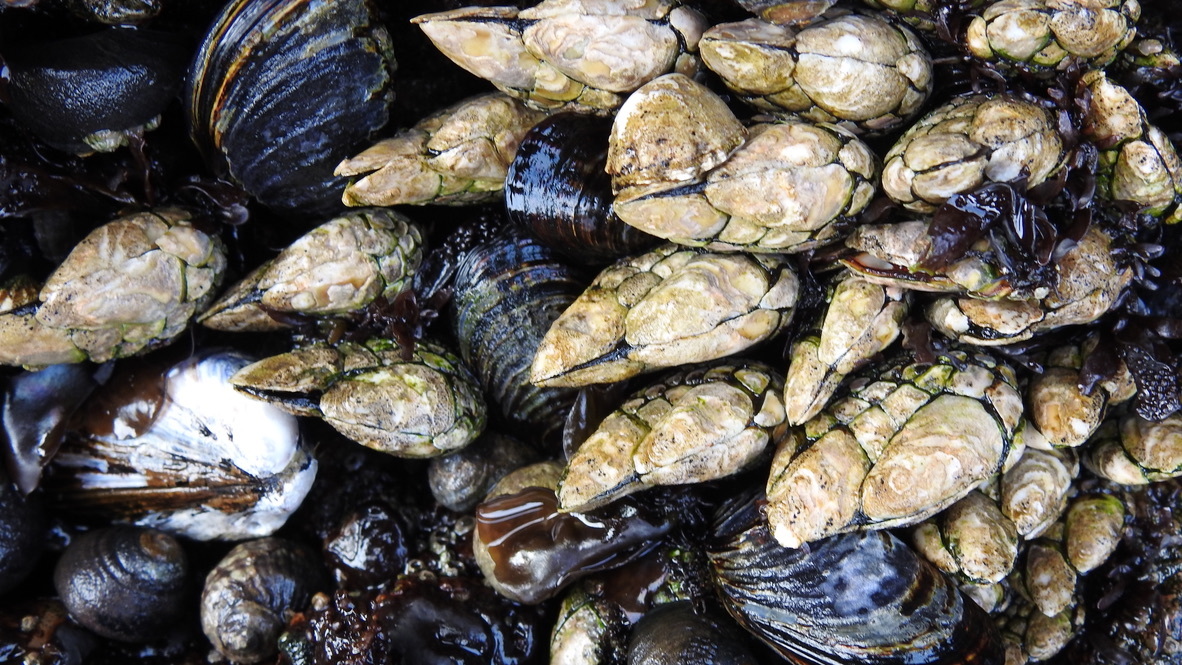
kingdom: Animalia
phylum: Arthropoda
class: Maxillopoda
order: Pedunculata
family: Pollicipedidae
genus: Pollicipes
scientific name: Pollicipes polymerus
